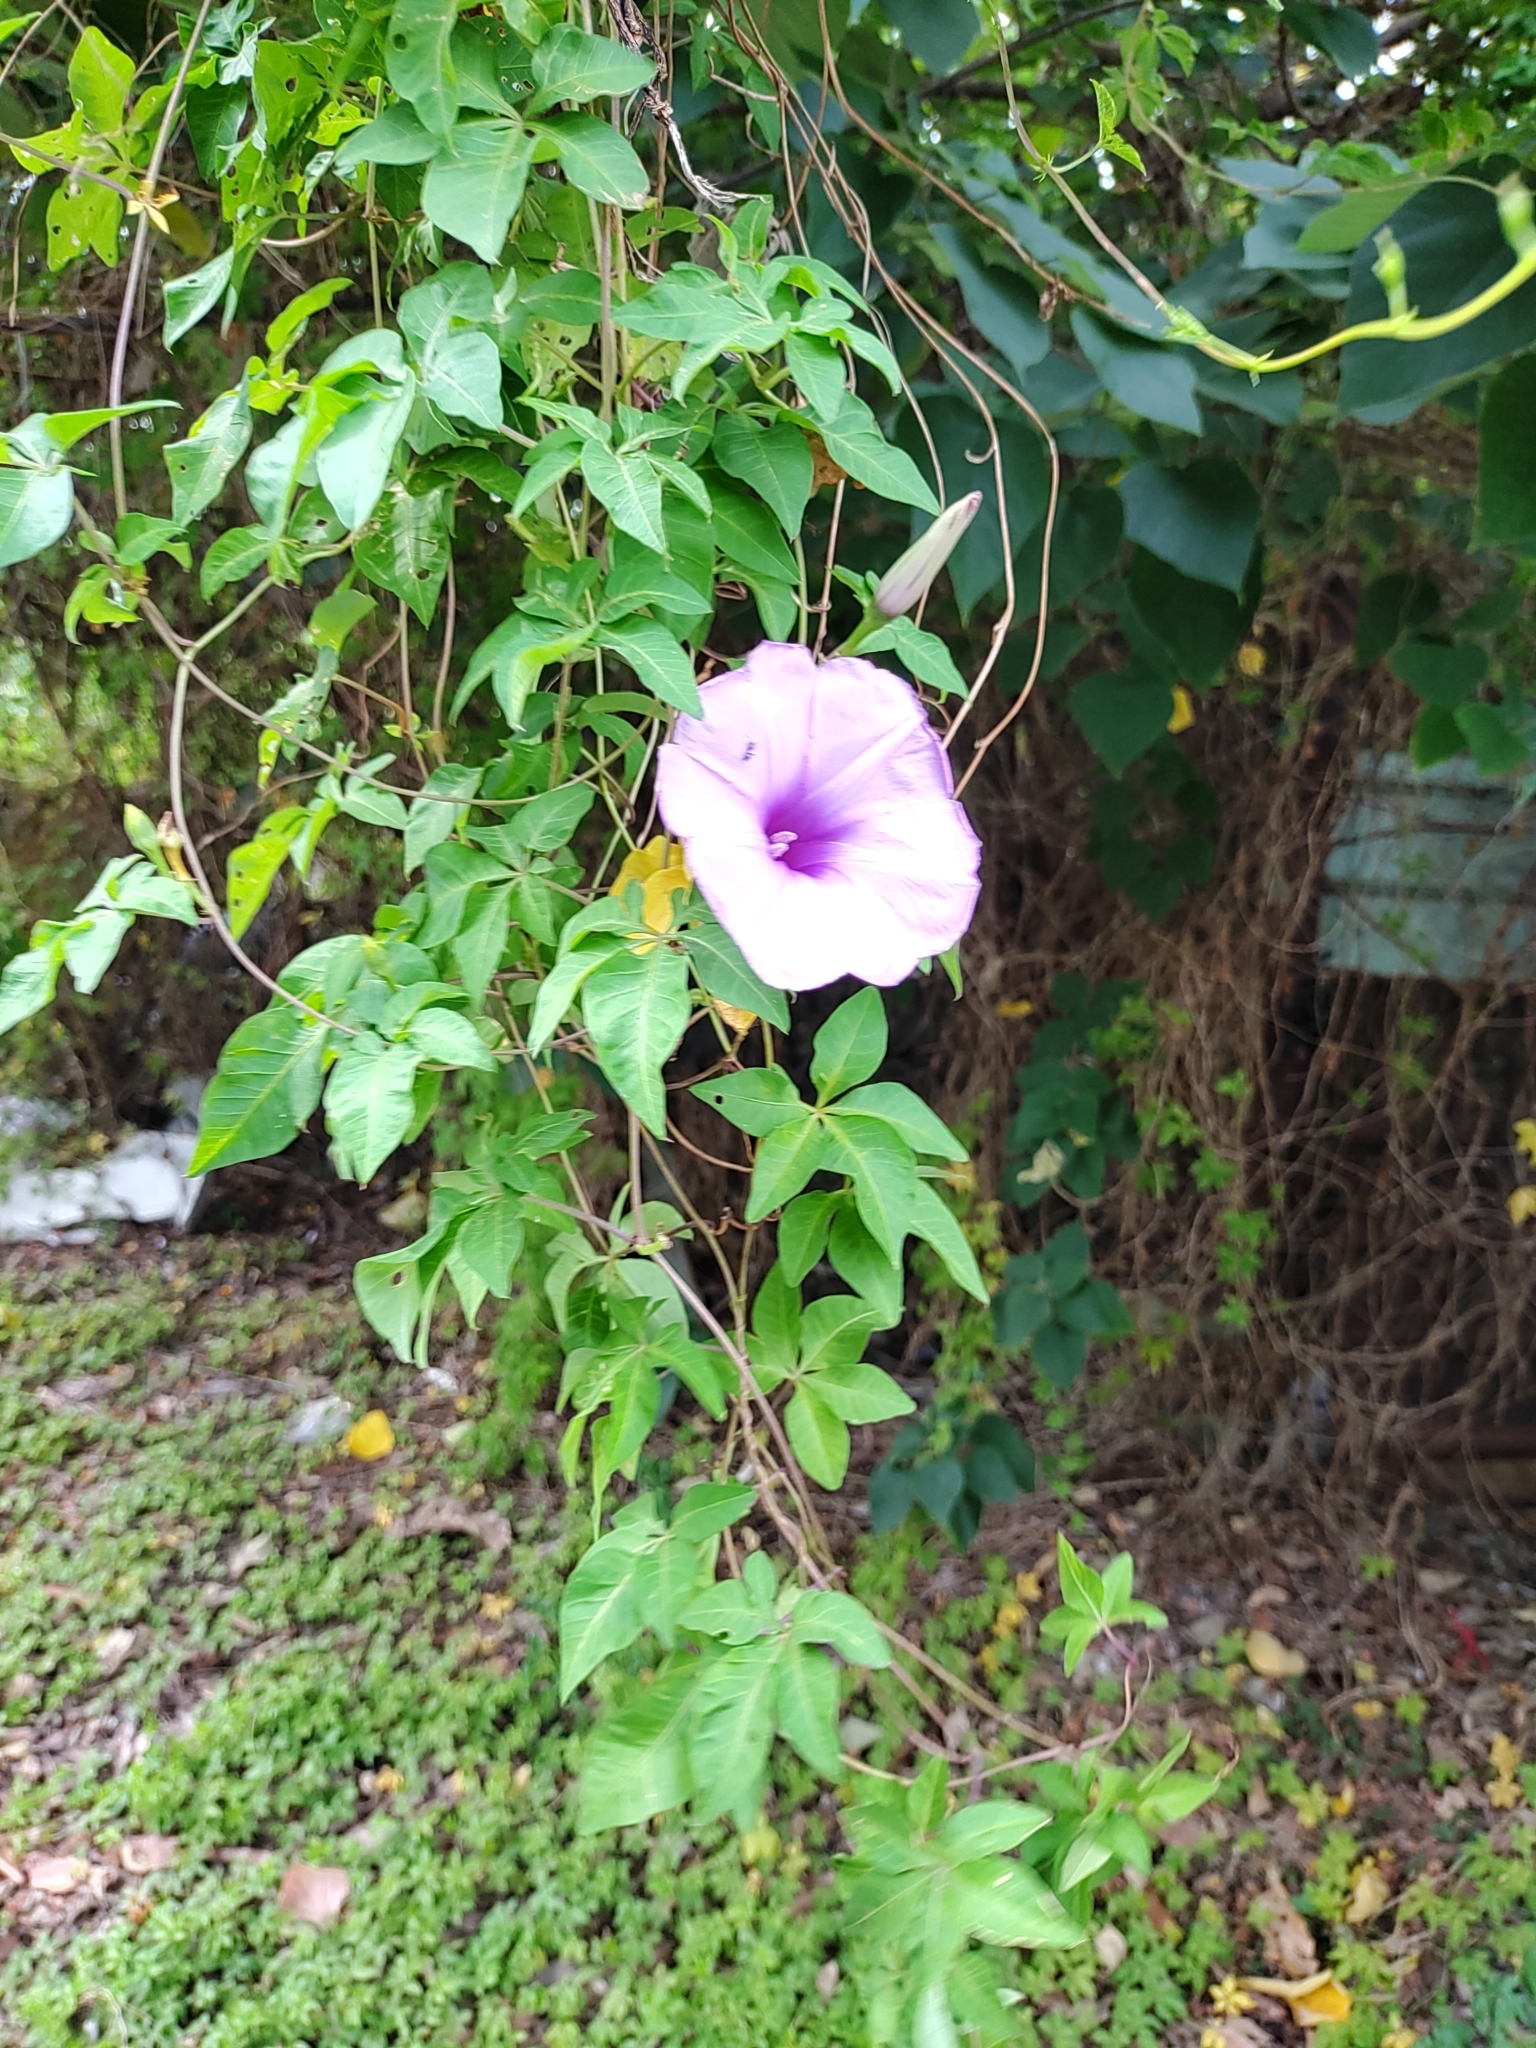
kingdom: Plantae
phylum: Tracheophyta
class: Magnoliopsida
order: Solanales
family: Convolvulaceae
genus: Ipomoea
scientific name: Ipomoea cairica
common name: Mile a minute vine
